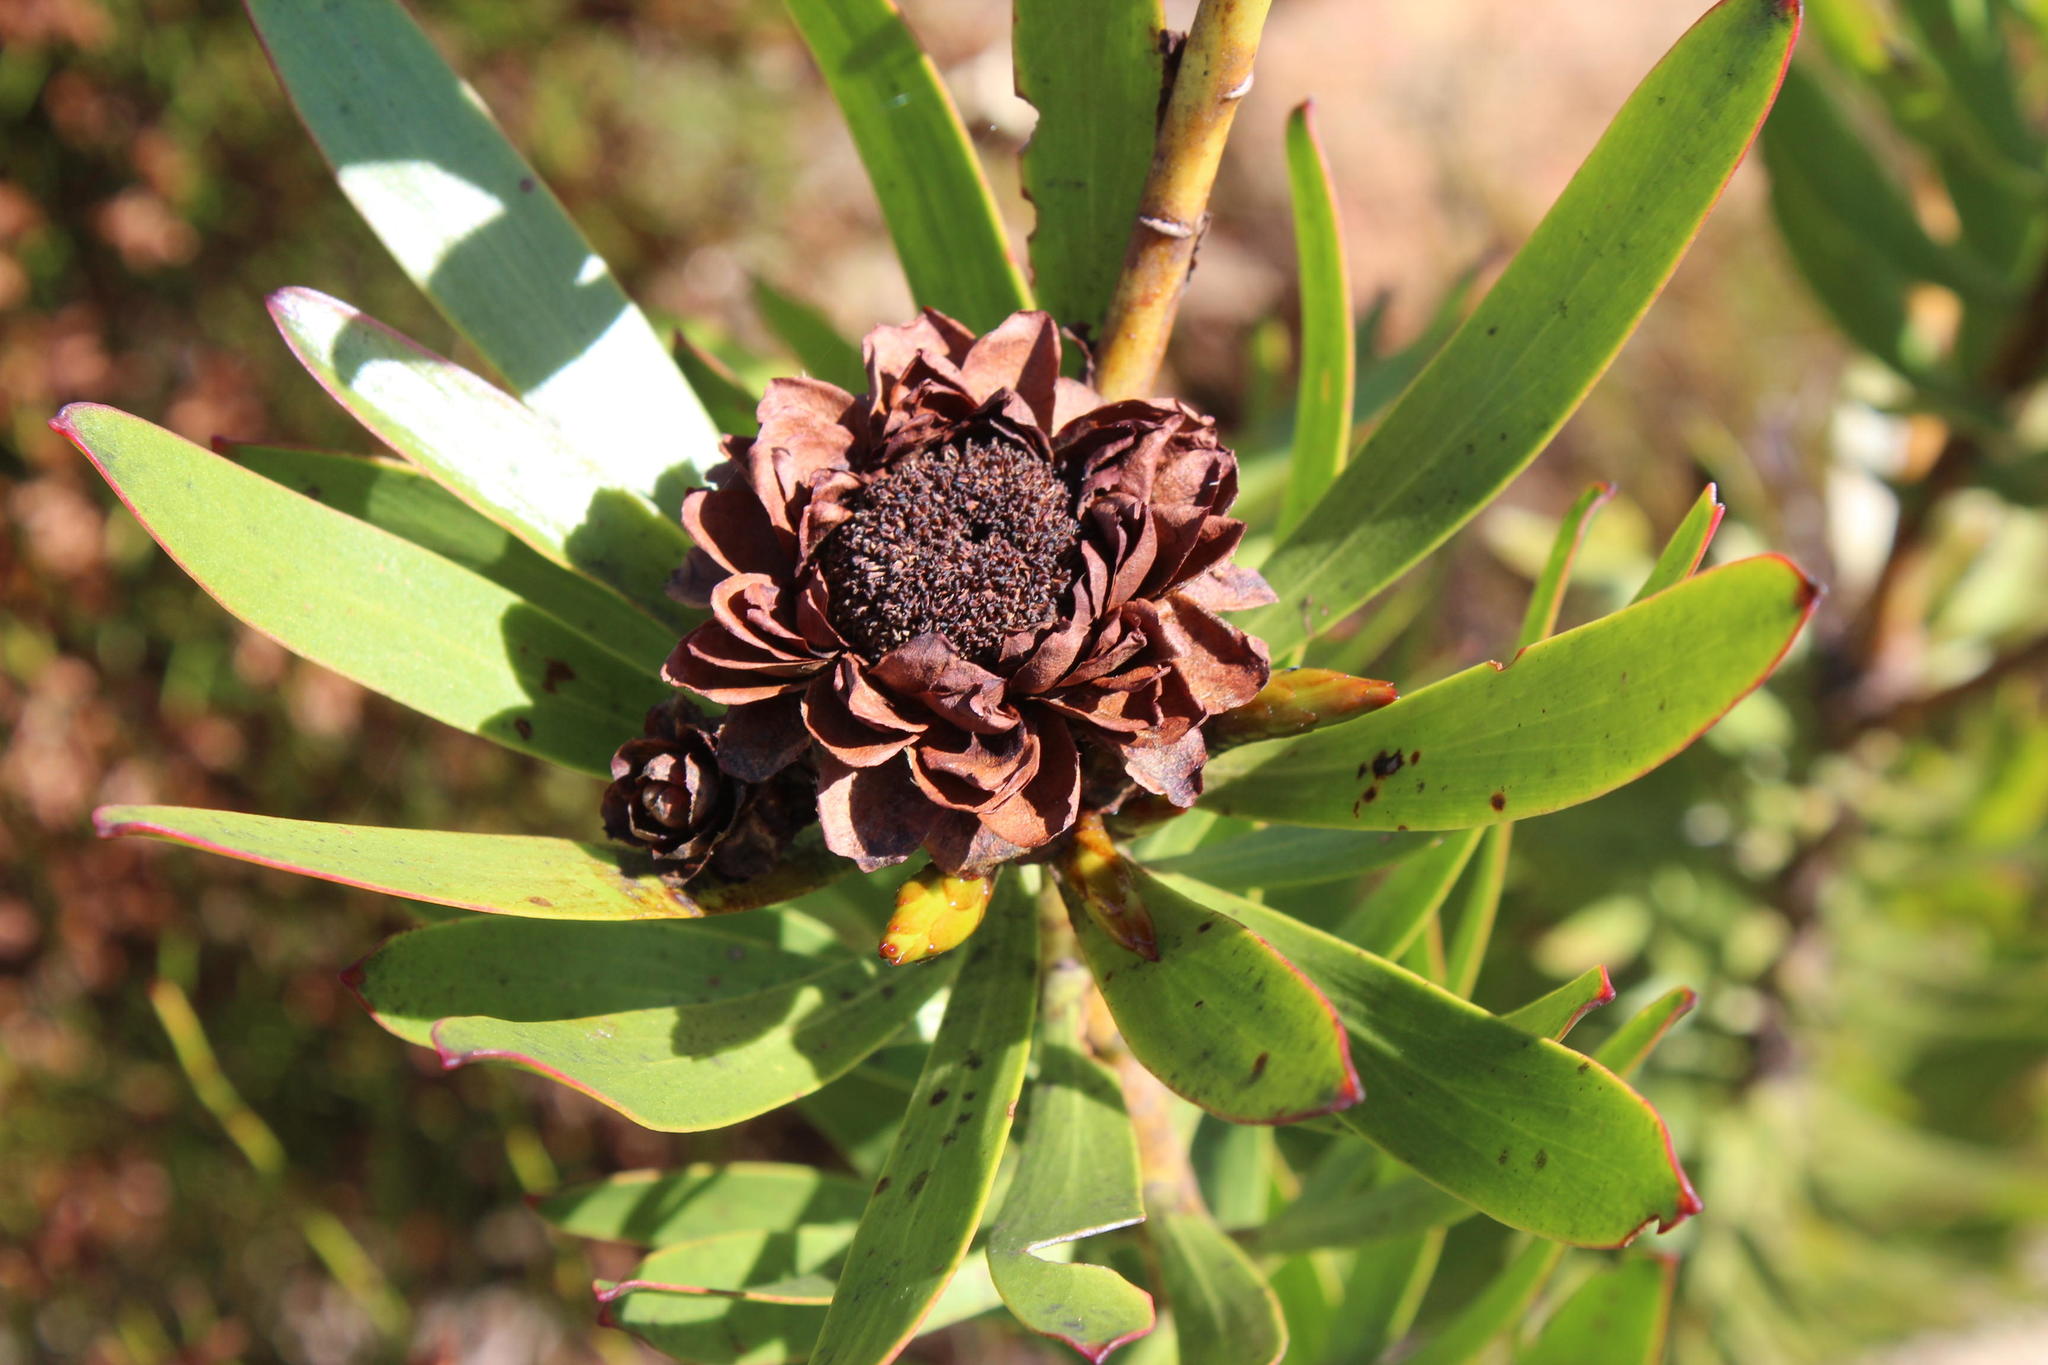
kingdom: Plantae
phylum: Tracheophyta
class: Magnoliopsida
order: Proteales
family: Proteaceae
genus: Leucadendron
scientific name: Leucadendron microcephalum
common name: Oilbract conebush
